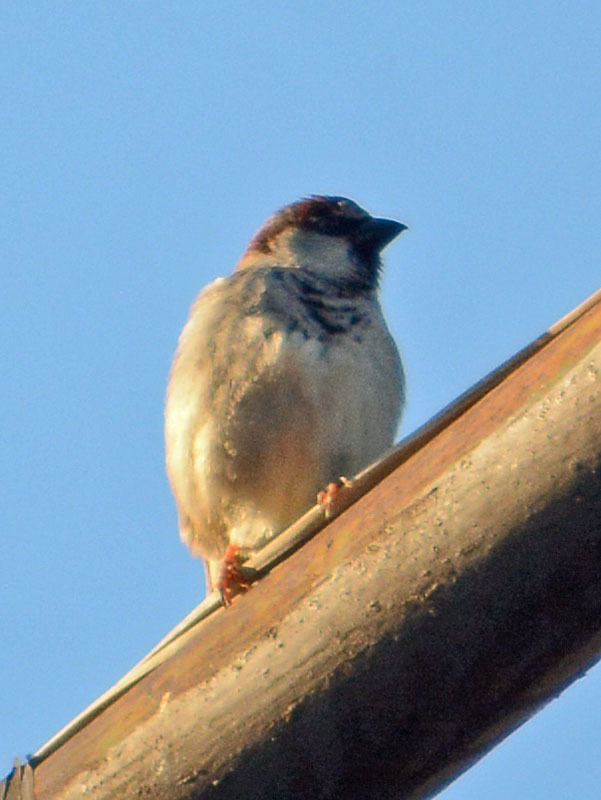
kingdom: Animalia
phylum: Chordata
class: Aves
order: Passeriformes
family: Passeridae
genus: Passer
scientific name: Passer domesticus
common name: House sparrow
